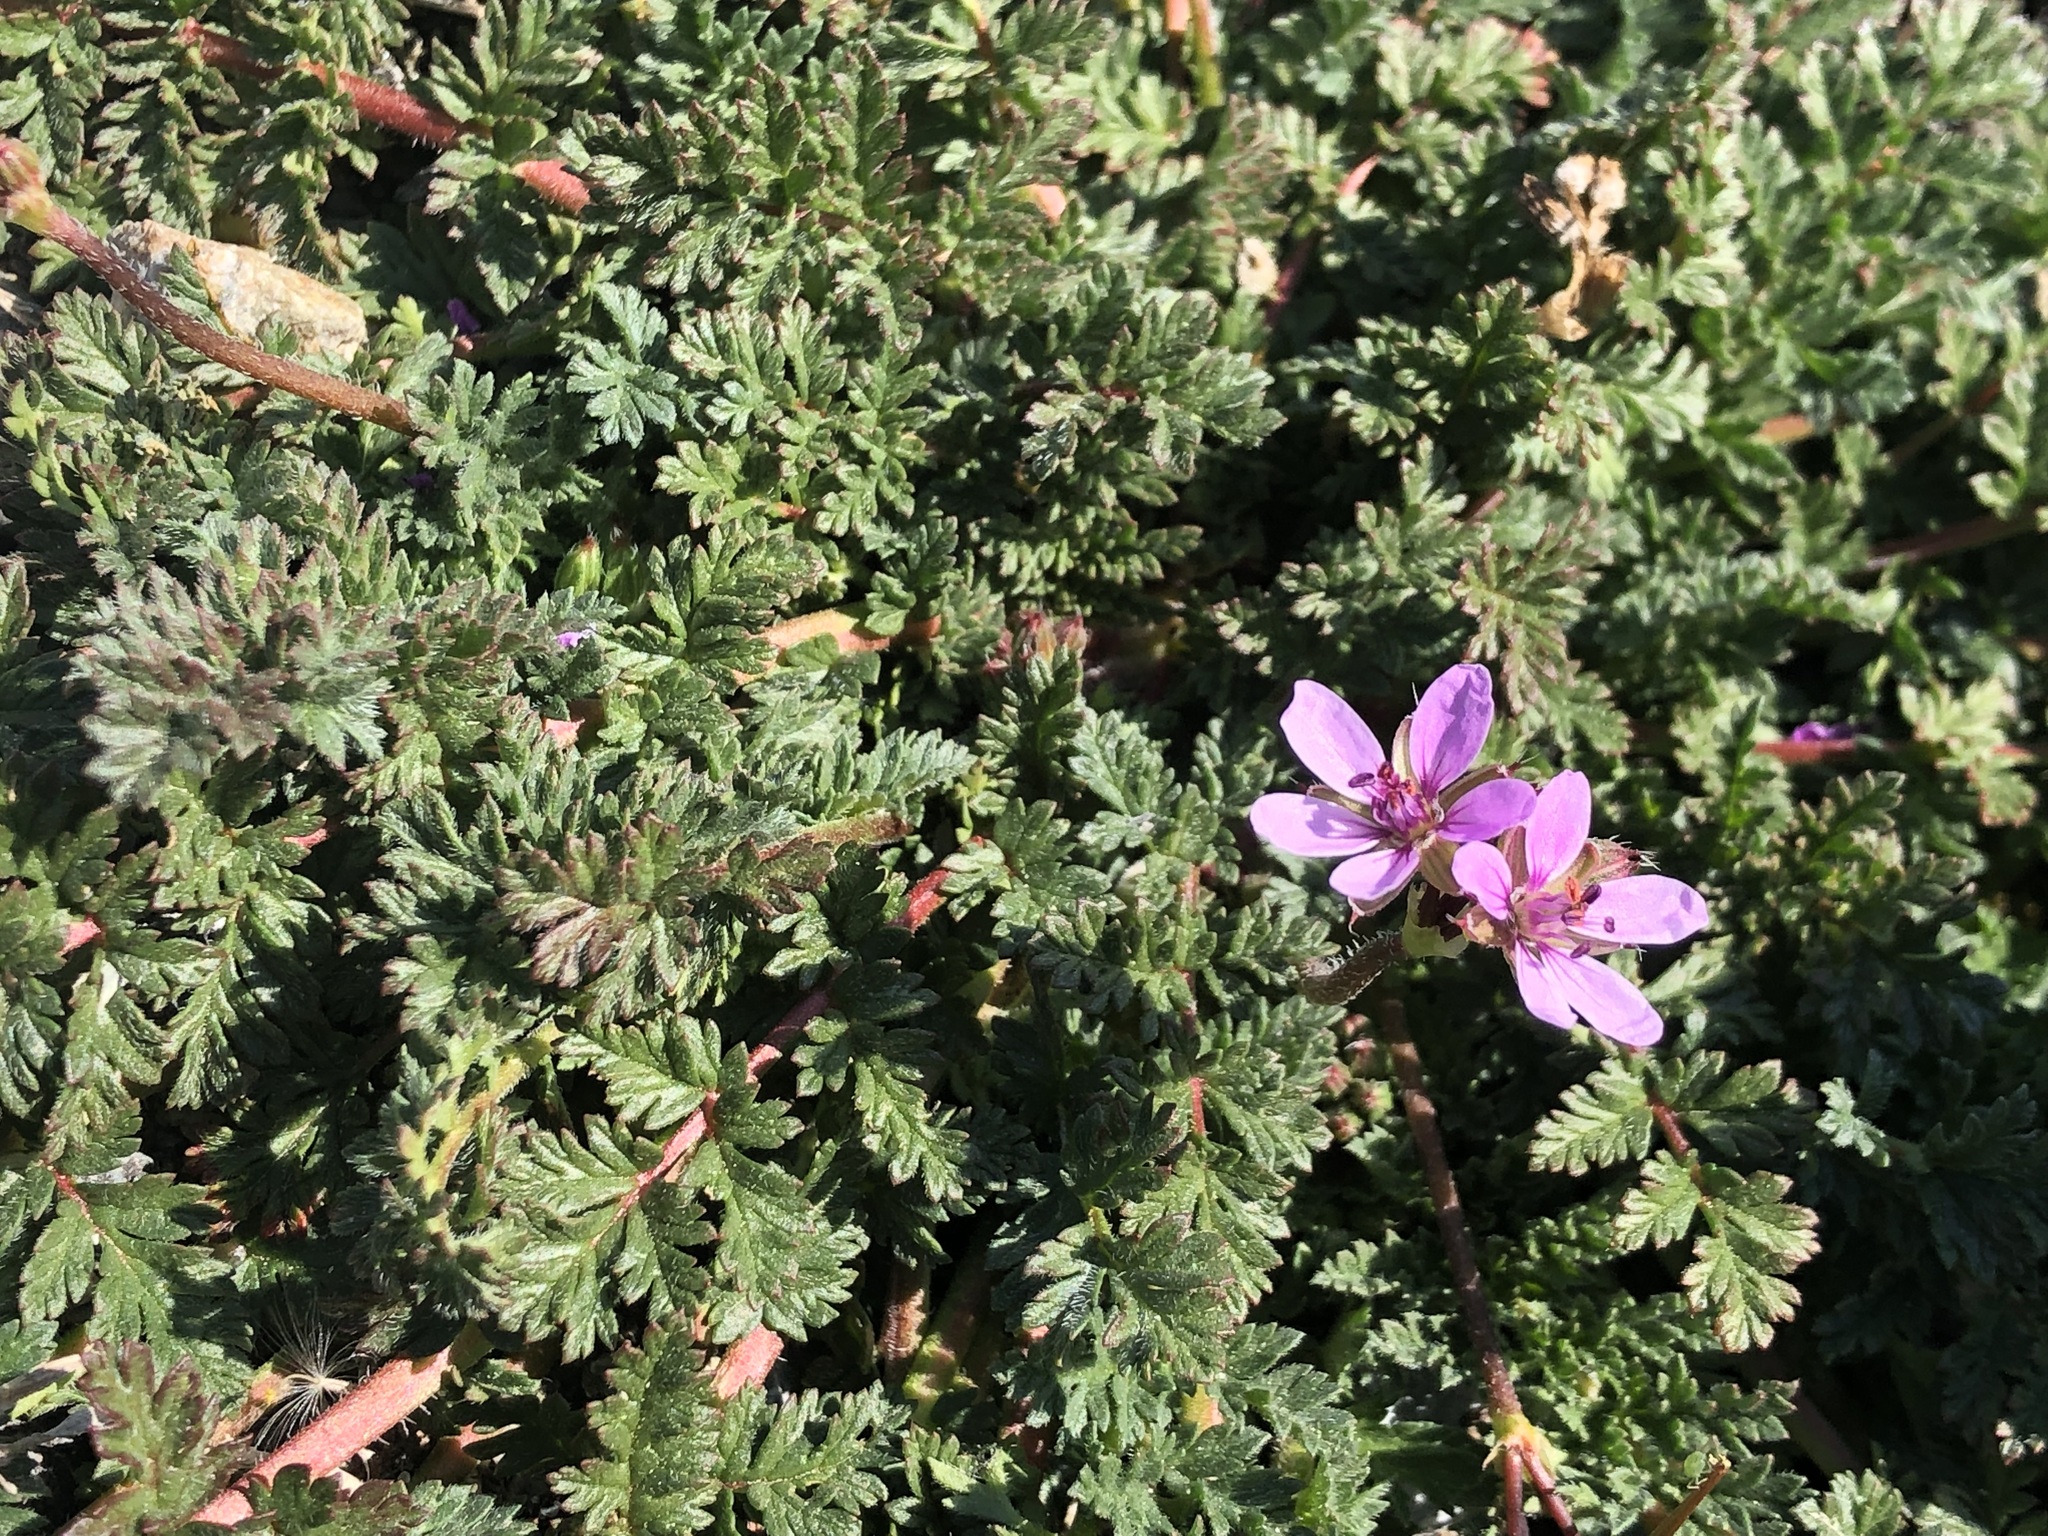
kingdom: Plantae
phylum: Tracheophyta
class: Magnoliopsida
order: Geraniales
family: Geraniaceae
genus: Erodium
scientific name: Erodium cicutarium
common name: Common stork's-bill
